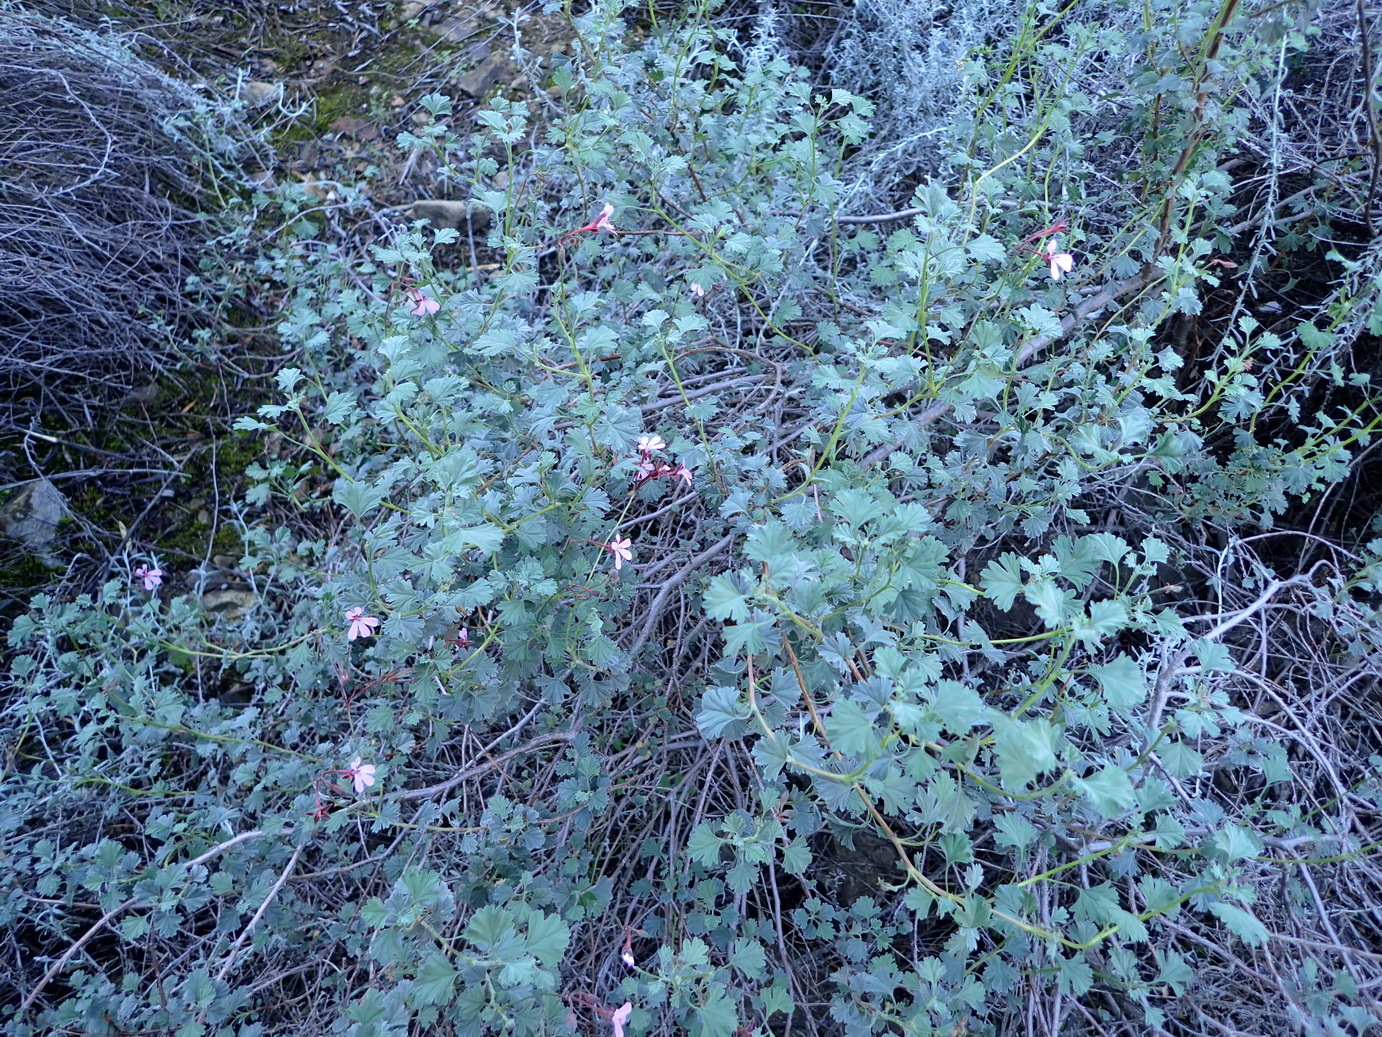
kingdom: Plantae
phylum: Tracheophyta
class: Magnoliopsida
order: Geraniales
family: Geraniaceae
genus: Pelargonium
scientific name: Pelargonium exstipulatum
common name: Soft-leaf trifid pelargonium
